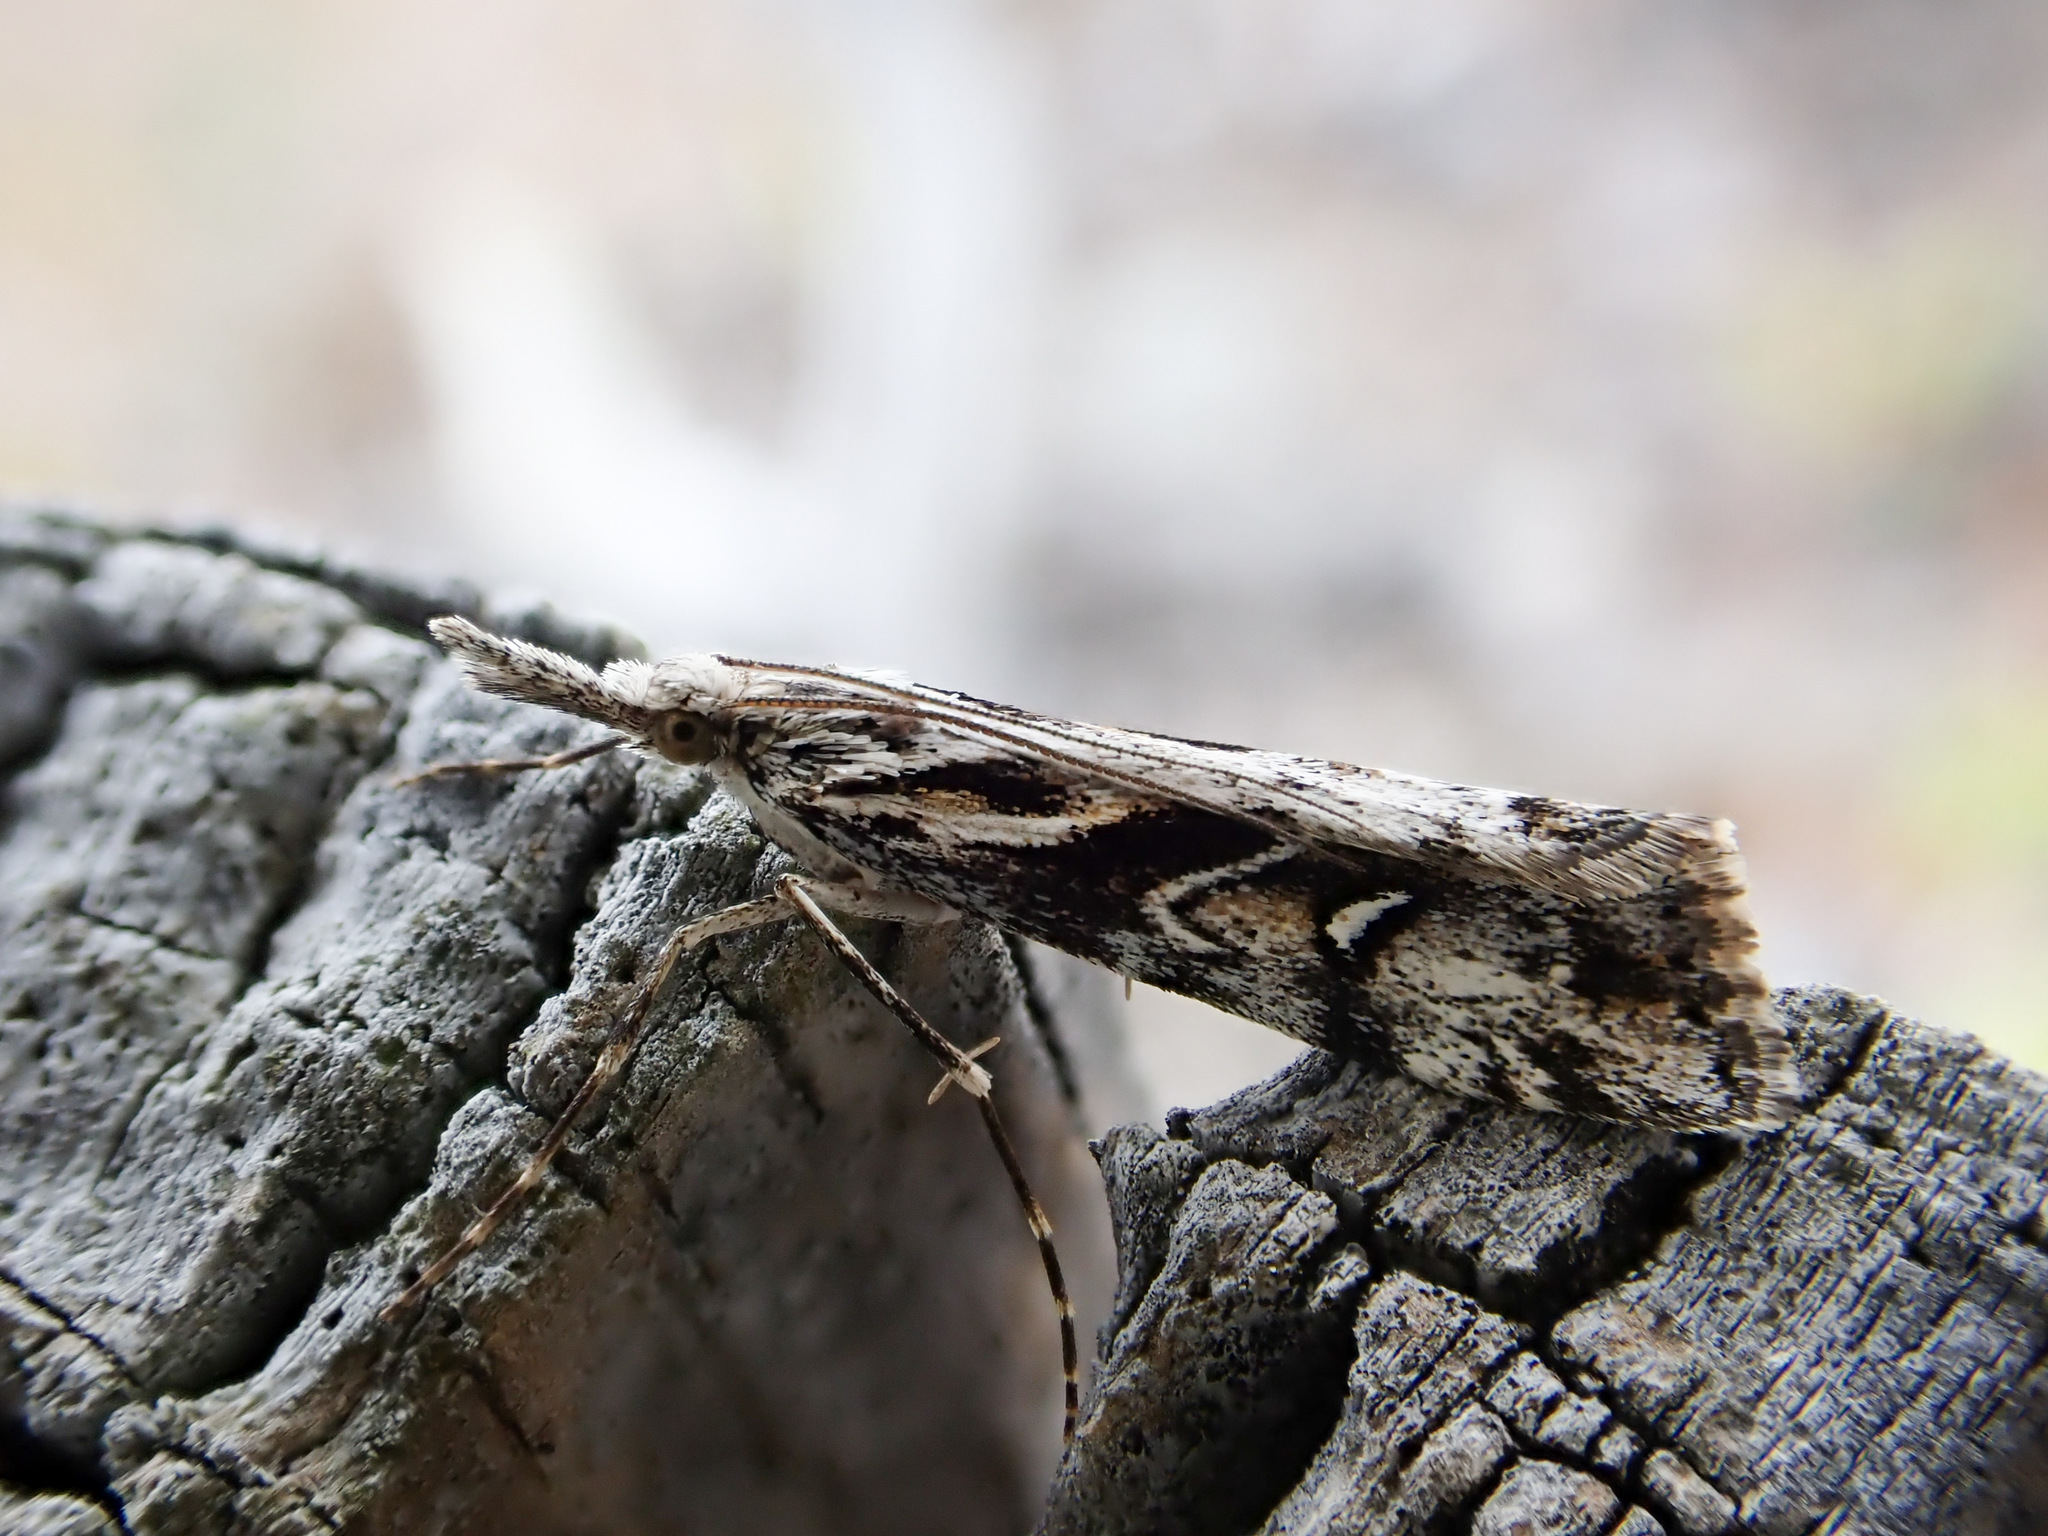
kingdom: Animalia
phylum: Arthropoda
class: Insecta
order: Lepidoptera
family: Crambidae
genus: Gadira
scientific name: Gadira leucophthalma
